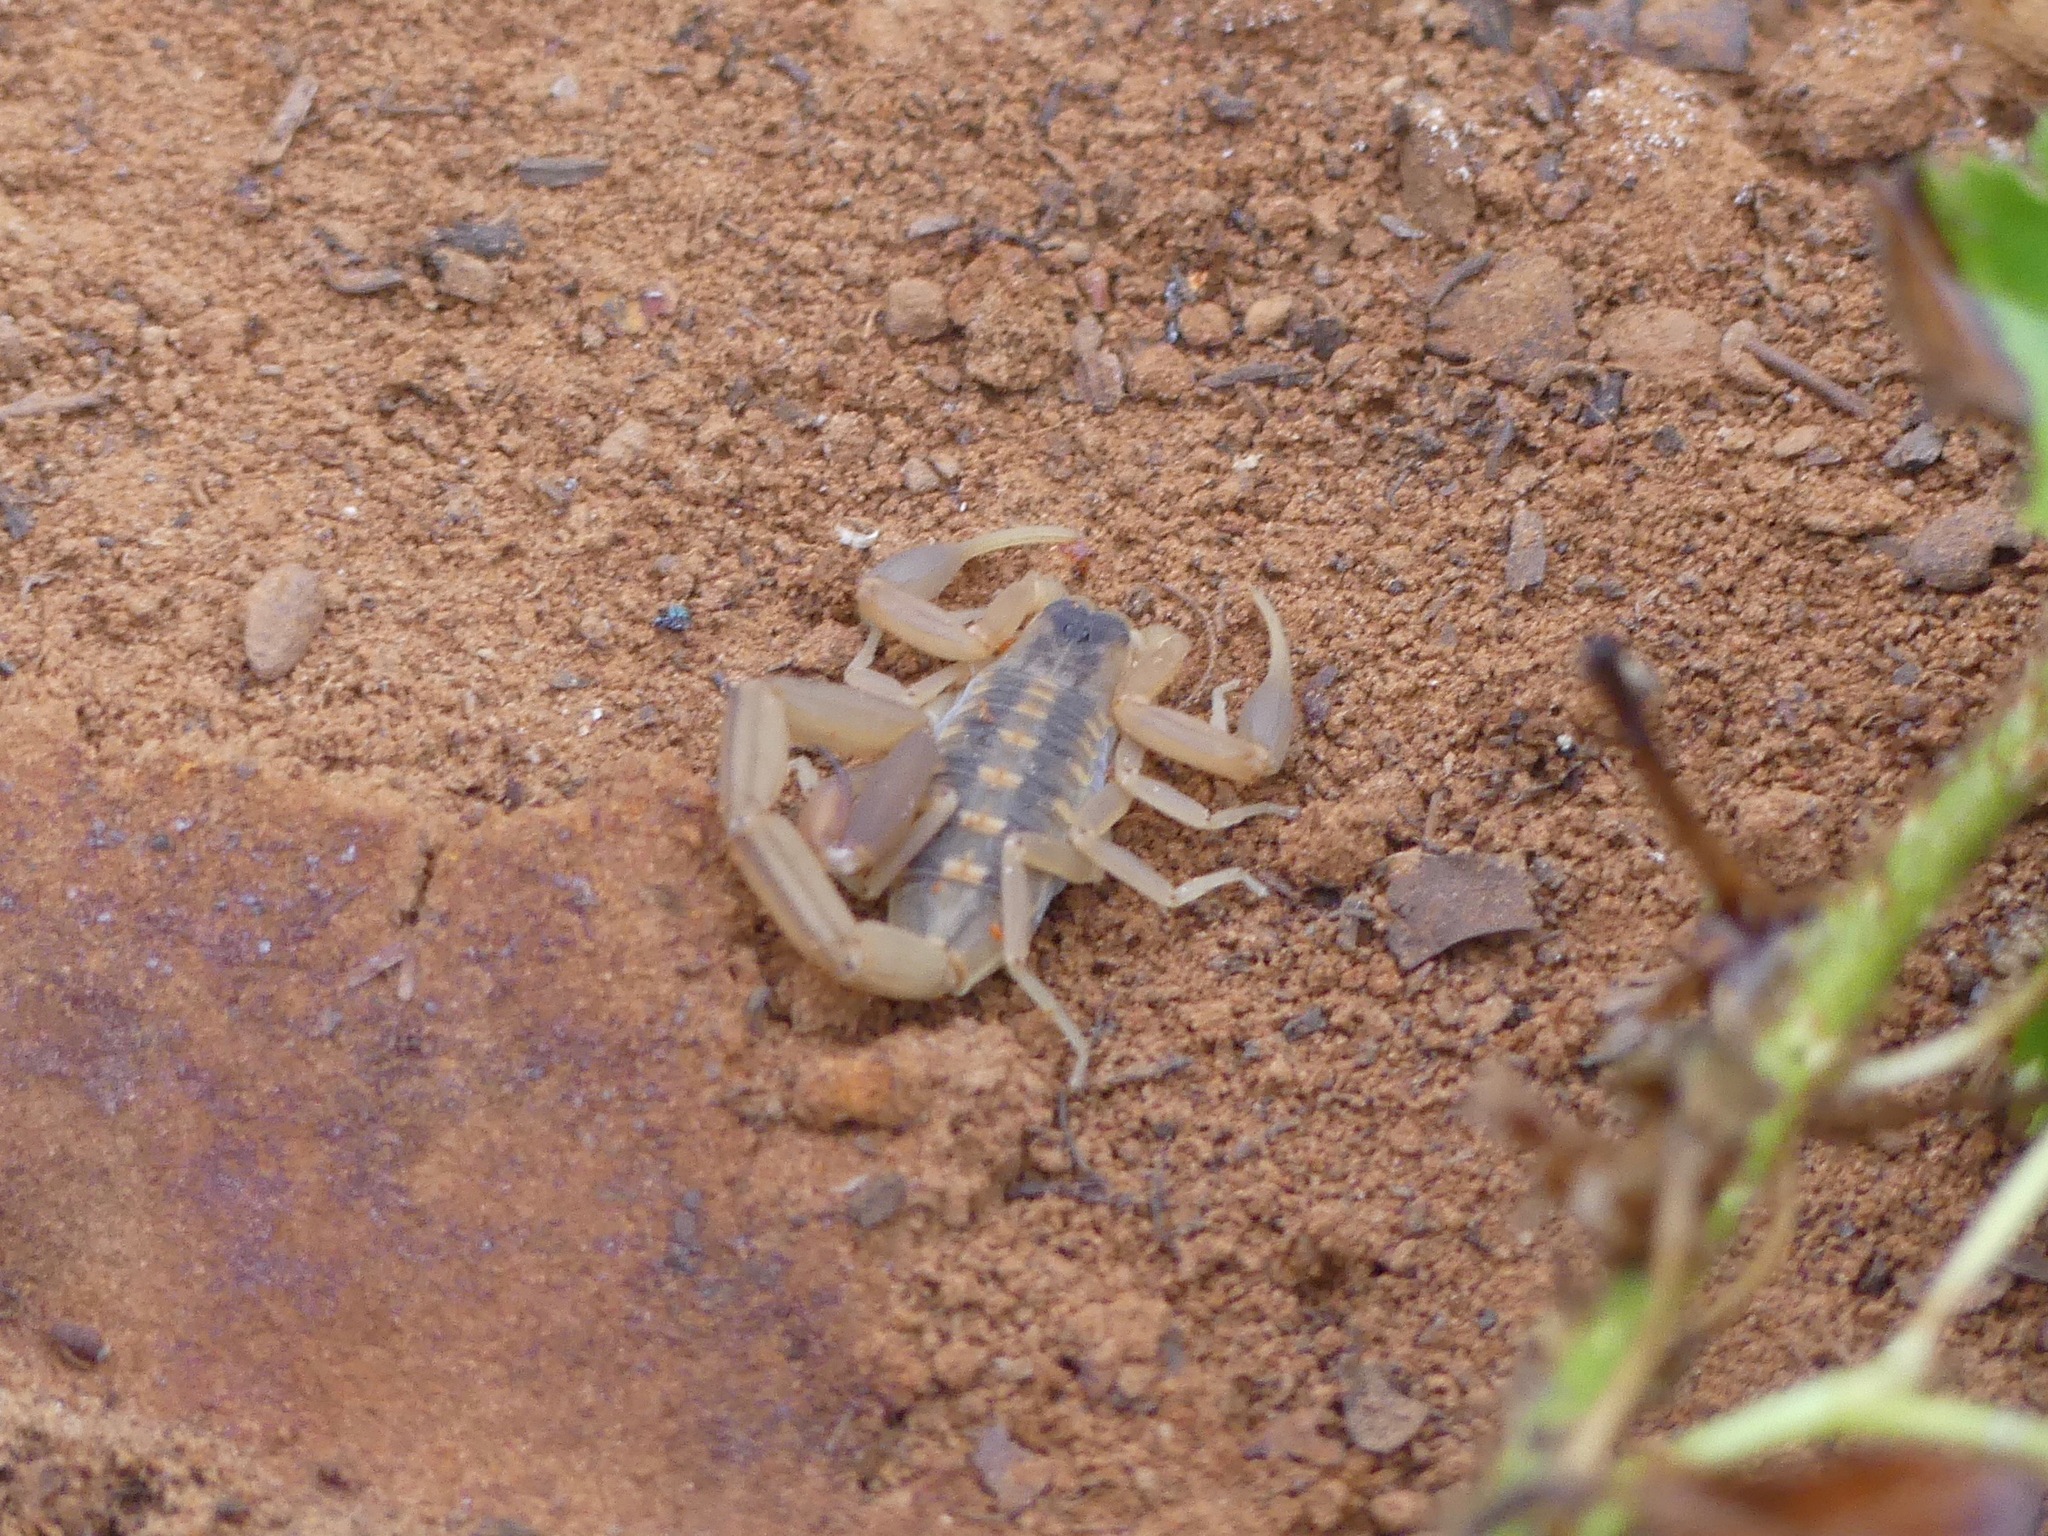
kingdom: Animalia
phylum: Arthropoda
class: Arachnida
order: Scorpiones
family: Buthidae
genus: Centruroides
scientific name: Centruroides vittatus
